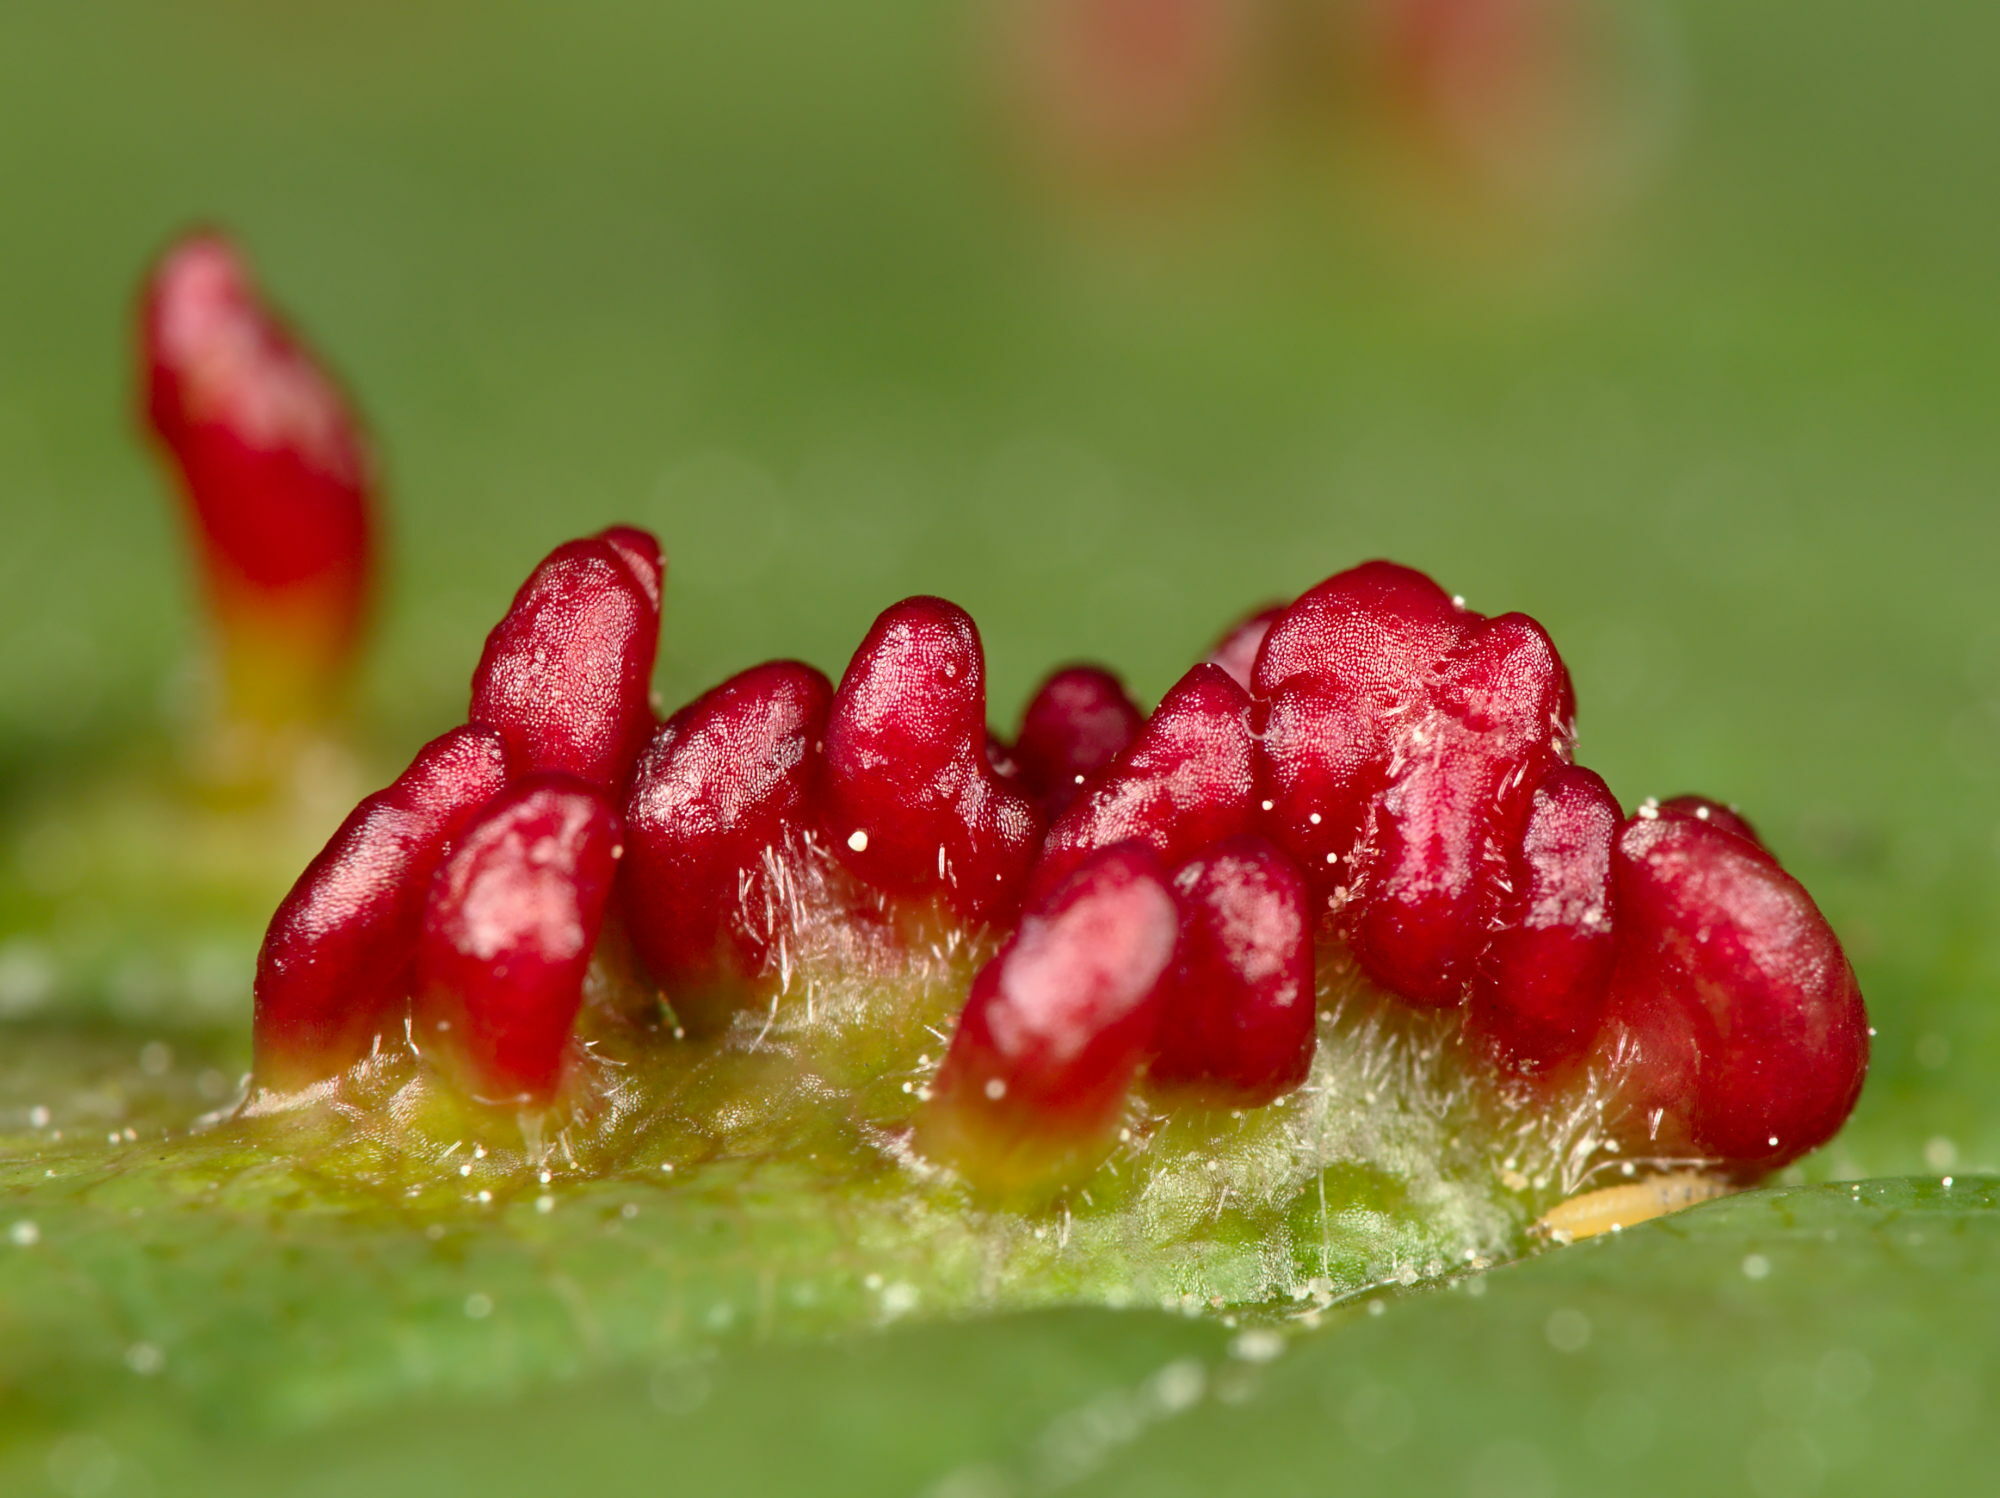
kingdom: Animalia
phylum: Arthropoda
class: Arachnida
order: Trombidiformes
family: Eriophyidae
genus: Aceria
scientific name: Aceria cephaloneus
